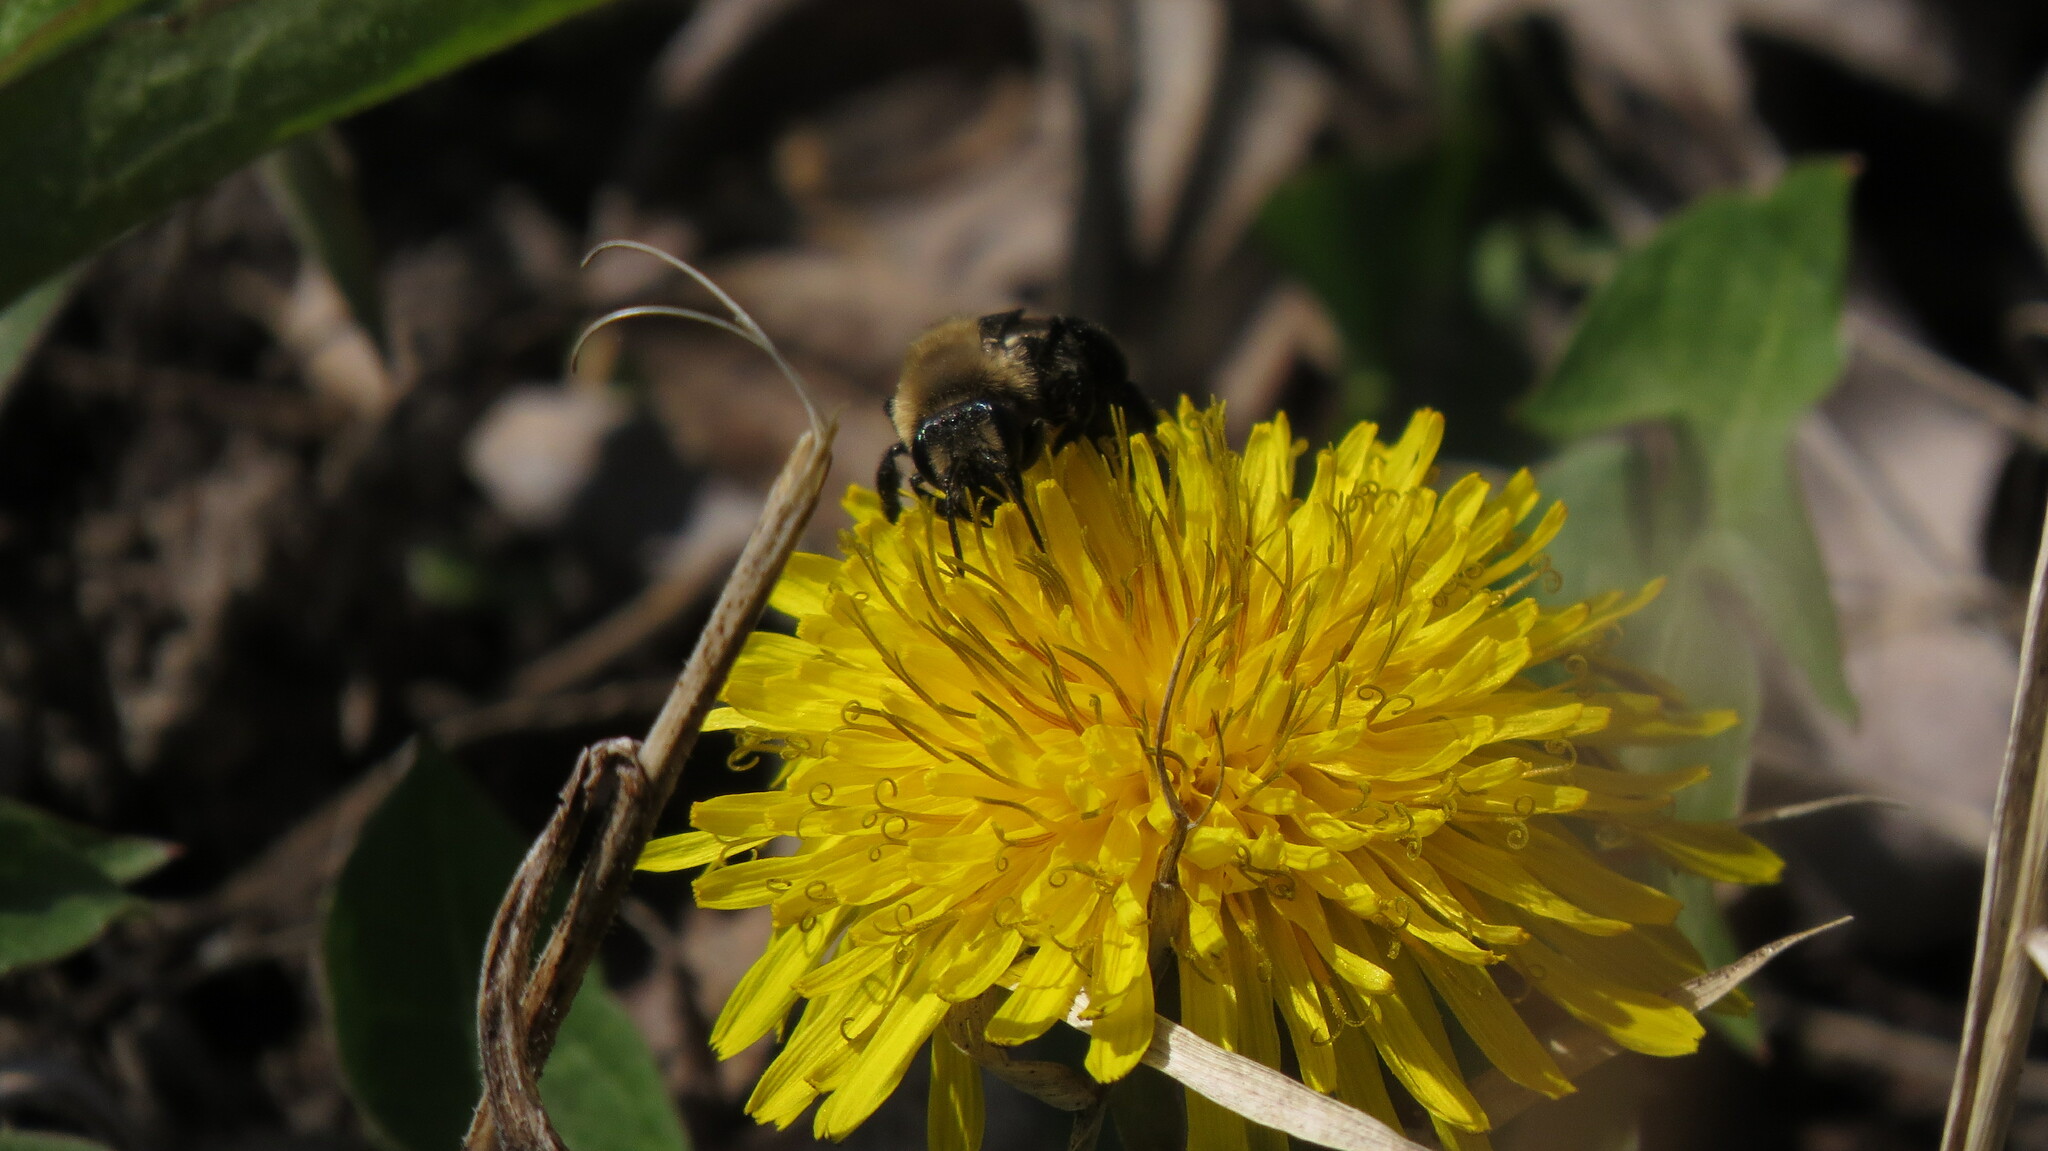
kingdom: Animalia
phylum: Arthropoda
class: Insecta
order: Hymenoptera
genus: Melandrena
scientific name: Melandrena
